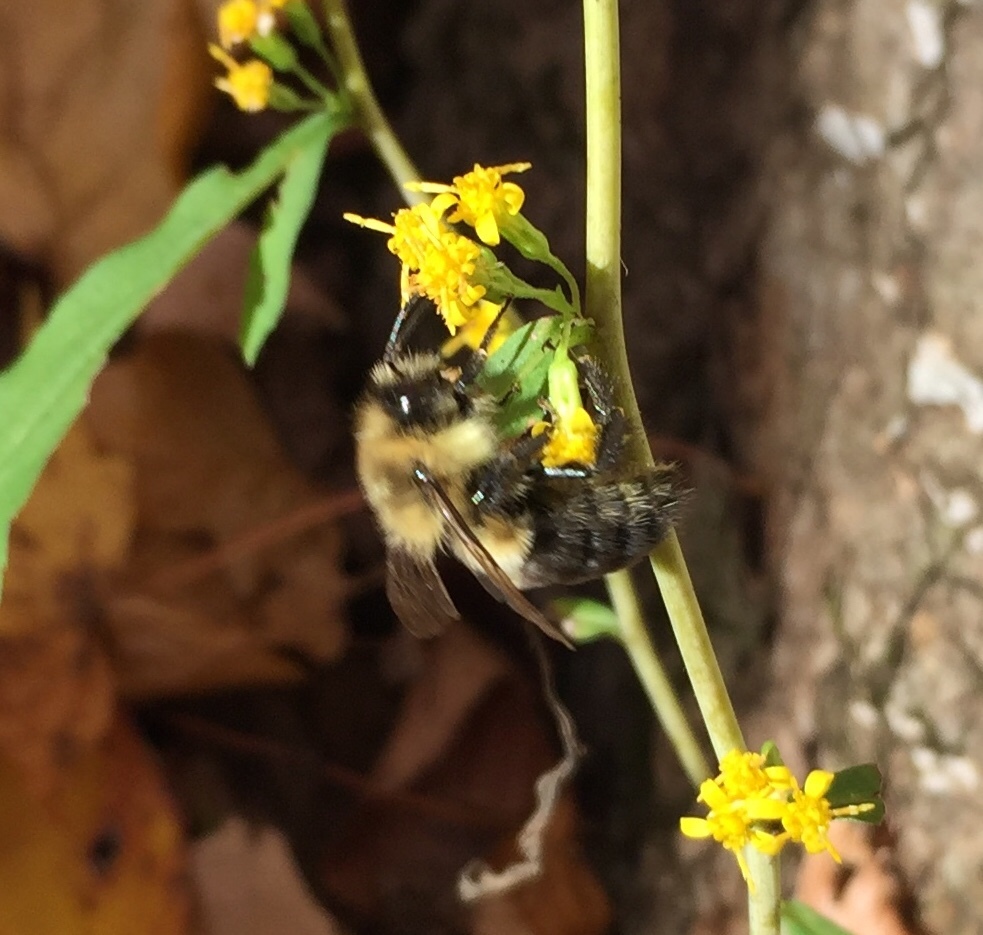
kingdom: Animalia
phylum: Arthropoda
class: Insecta
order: Hymenoptera
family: Apidae
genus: Bombus
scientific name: Bombus impatiens
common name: Common eastern bumble bee
